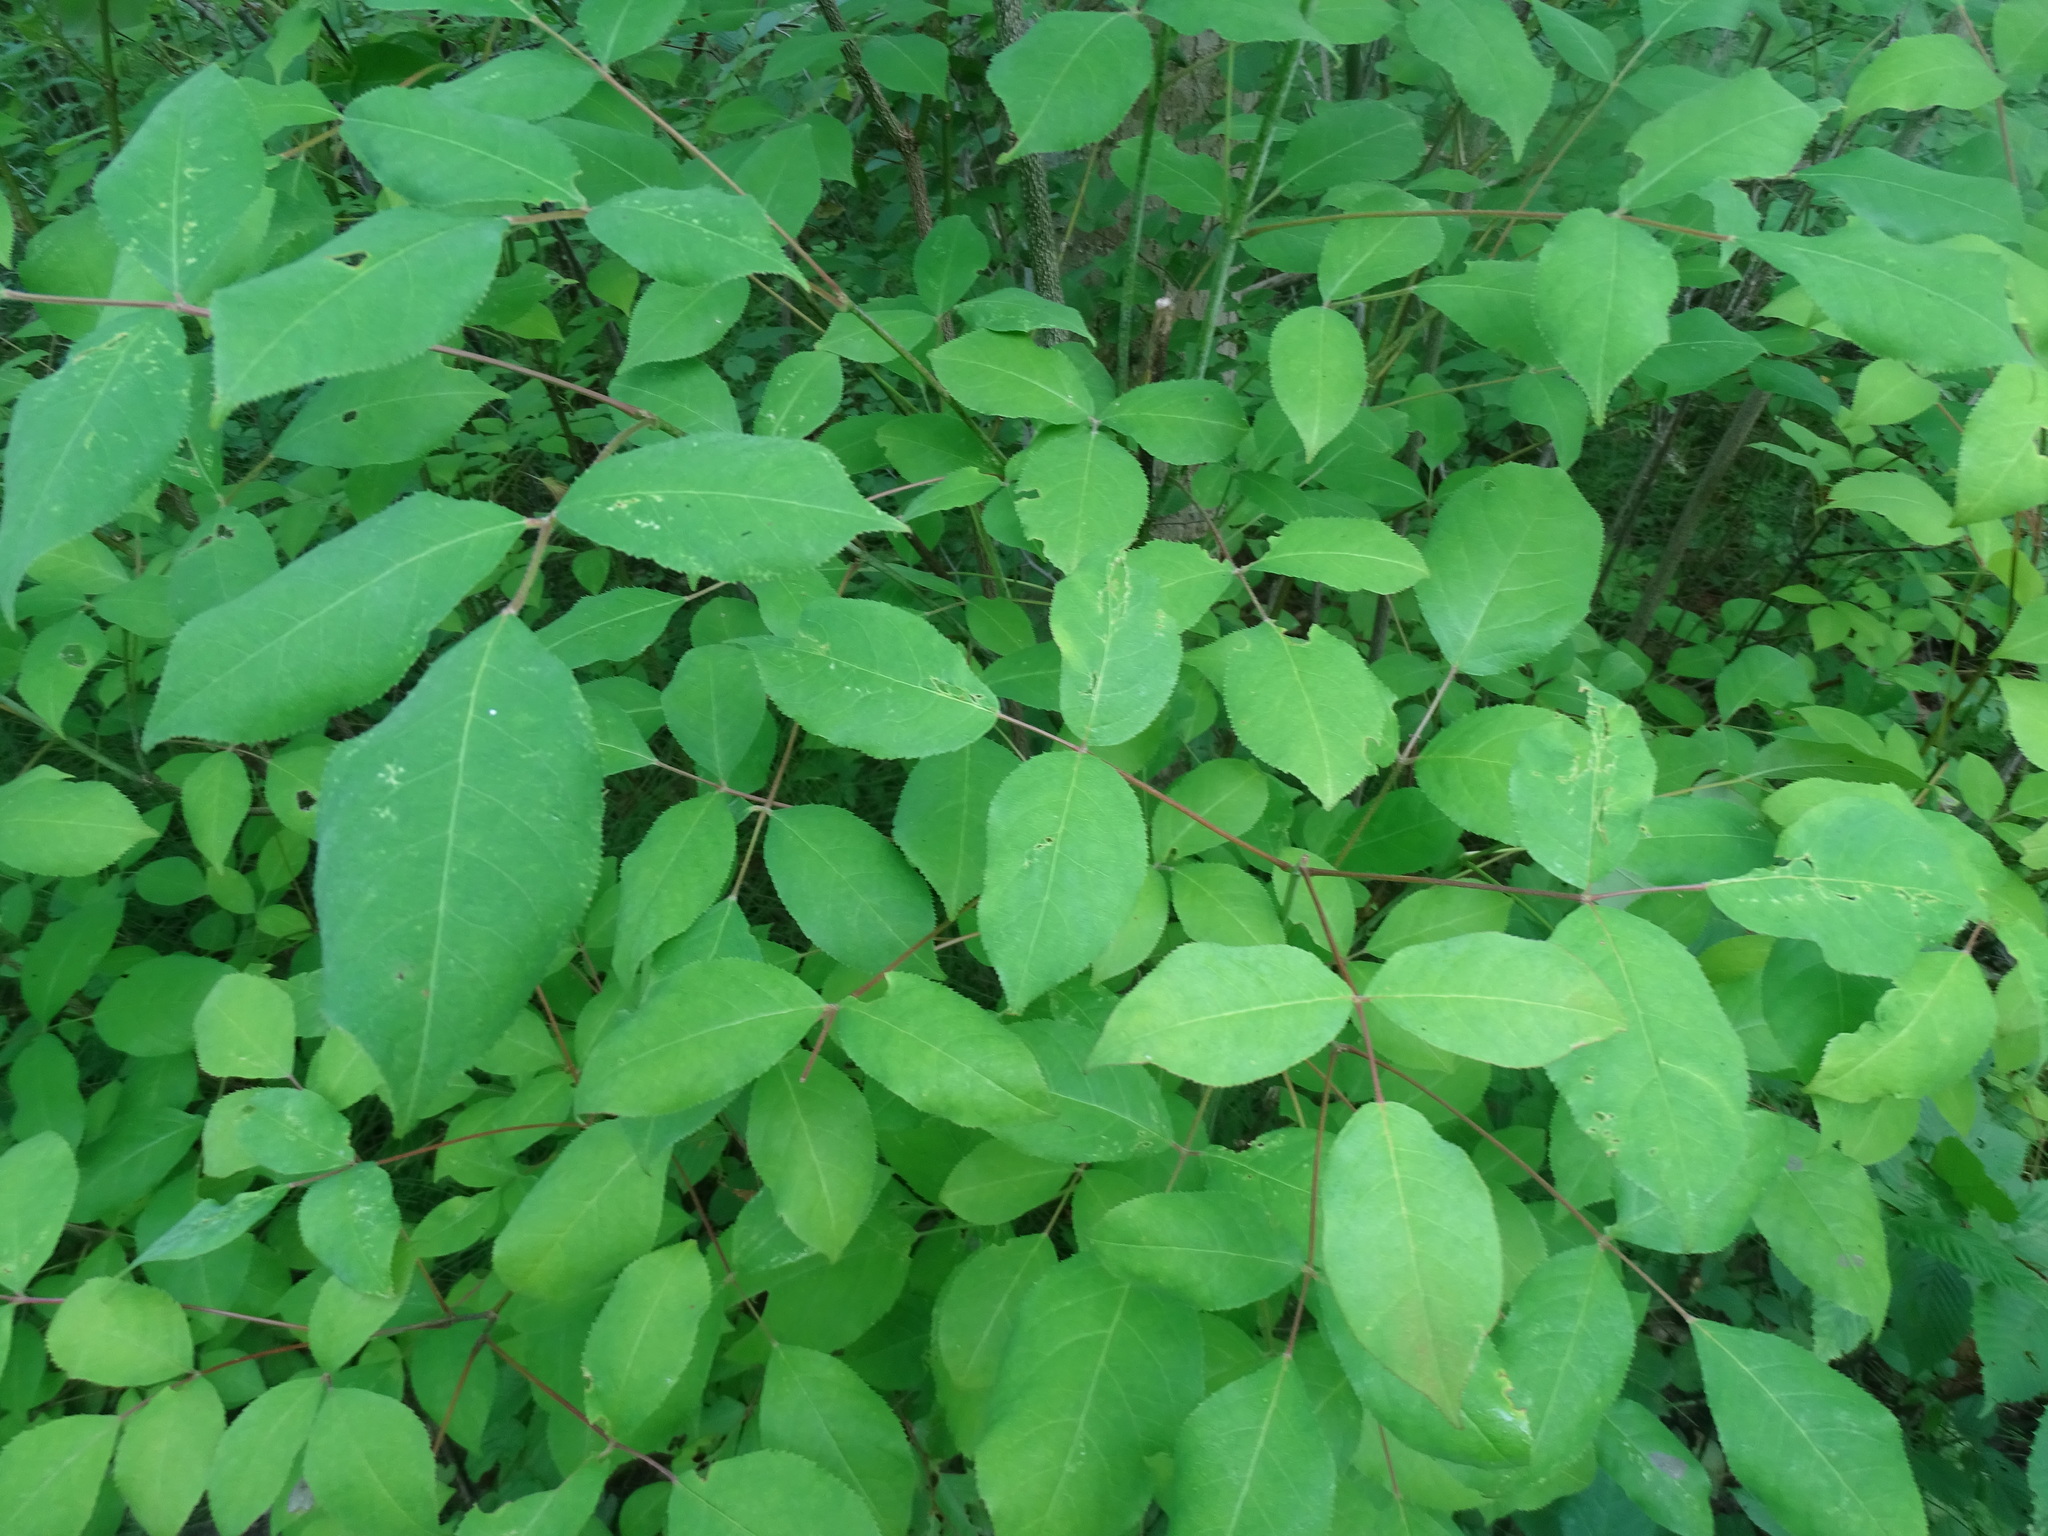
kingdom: Plantae
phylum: Tracheophyta
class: Magnoliopsida
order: Crossosomatales
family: Staphyleaceae
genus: Staphylea
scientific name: Staphylea trifolia
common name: American bladdernut
